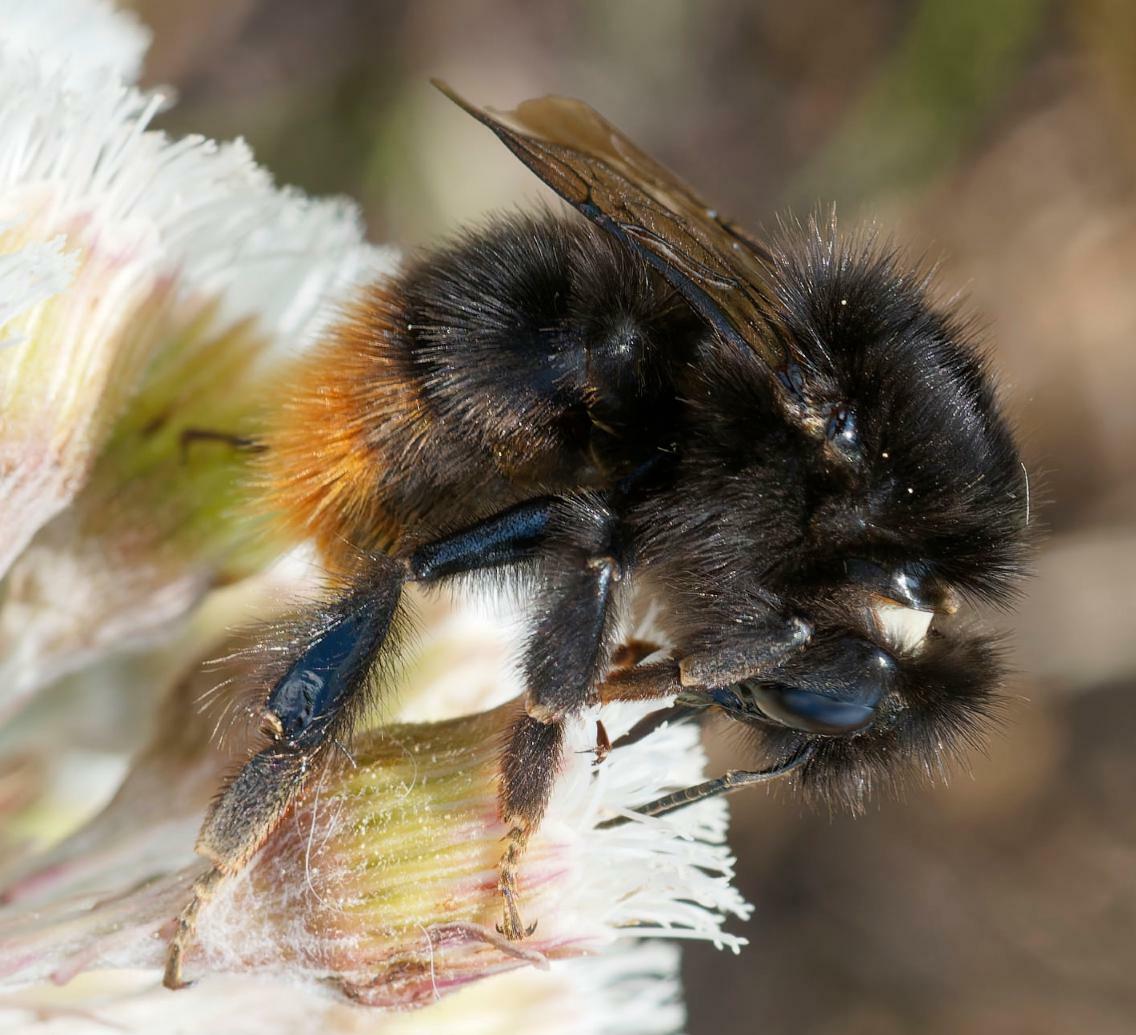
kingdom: Animalia
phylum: Arthropoda
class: Insecta
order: Hymenoptera
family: Apidae
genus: Bombus
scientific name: Bombus wurflenii
